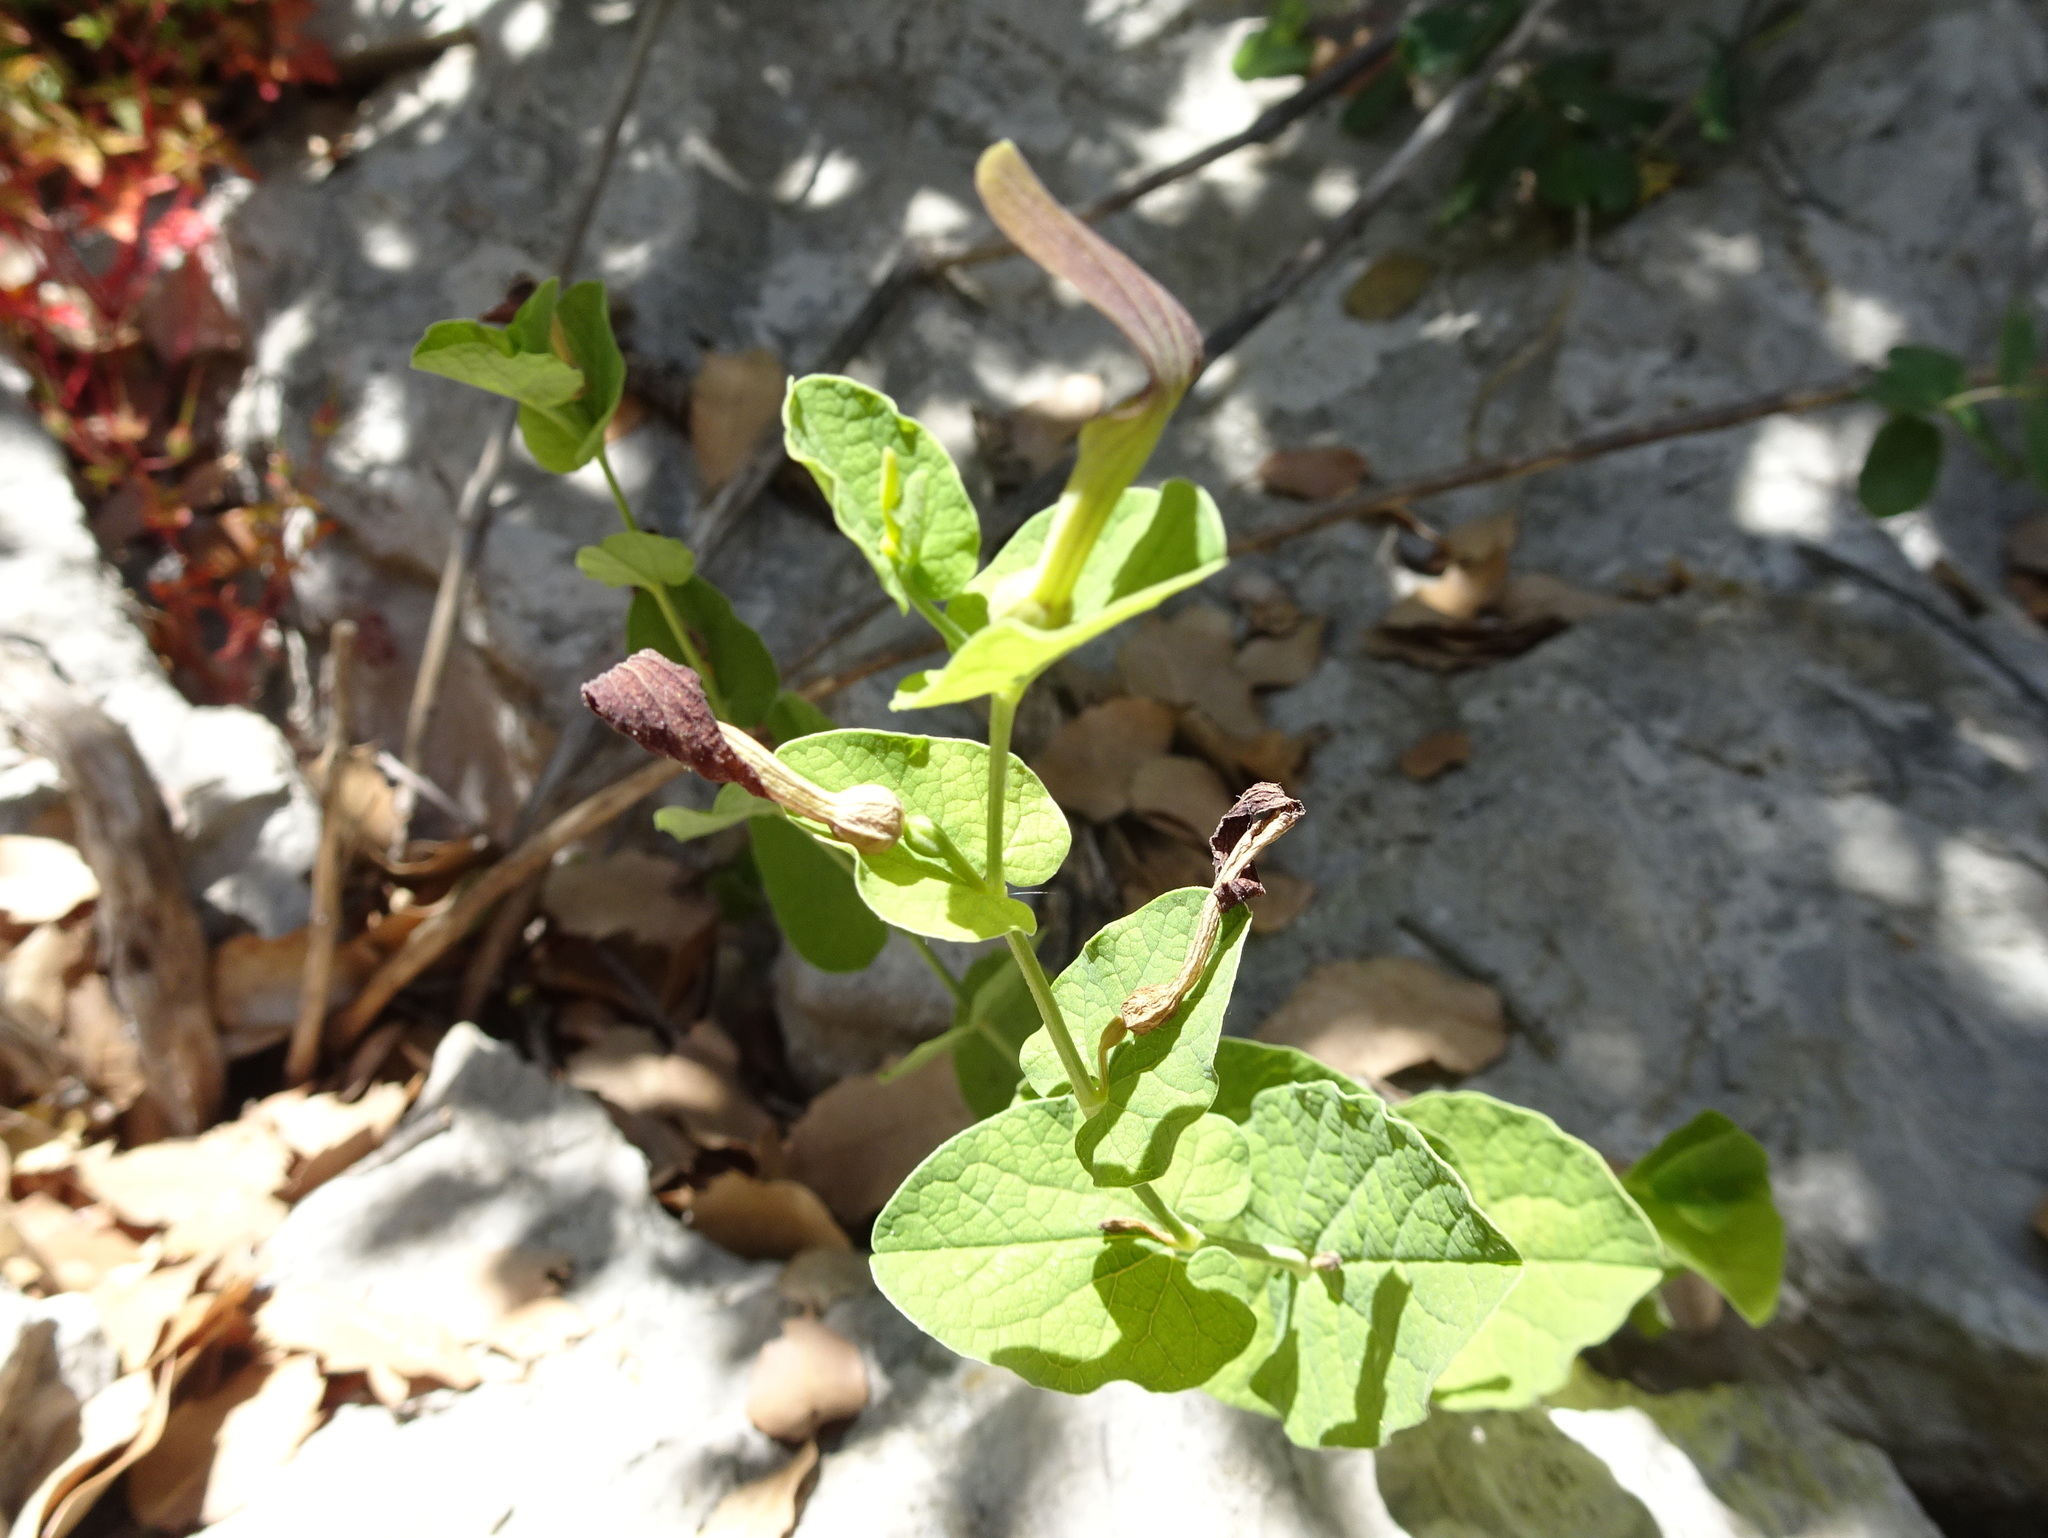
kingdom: Plantae
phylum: Tracheophyta
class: Magnoliopsida
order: Piperales
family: Aristolochiaceae
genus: Aristolochia
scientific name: Aristolochia rotunda
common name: Smearwort
